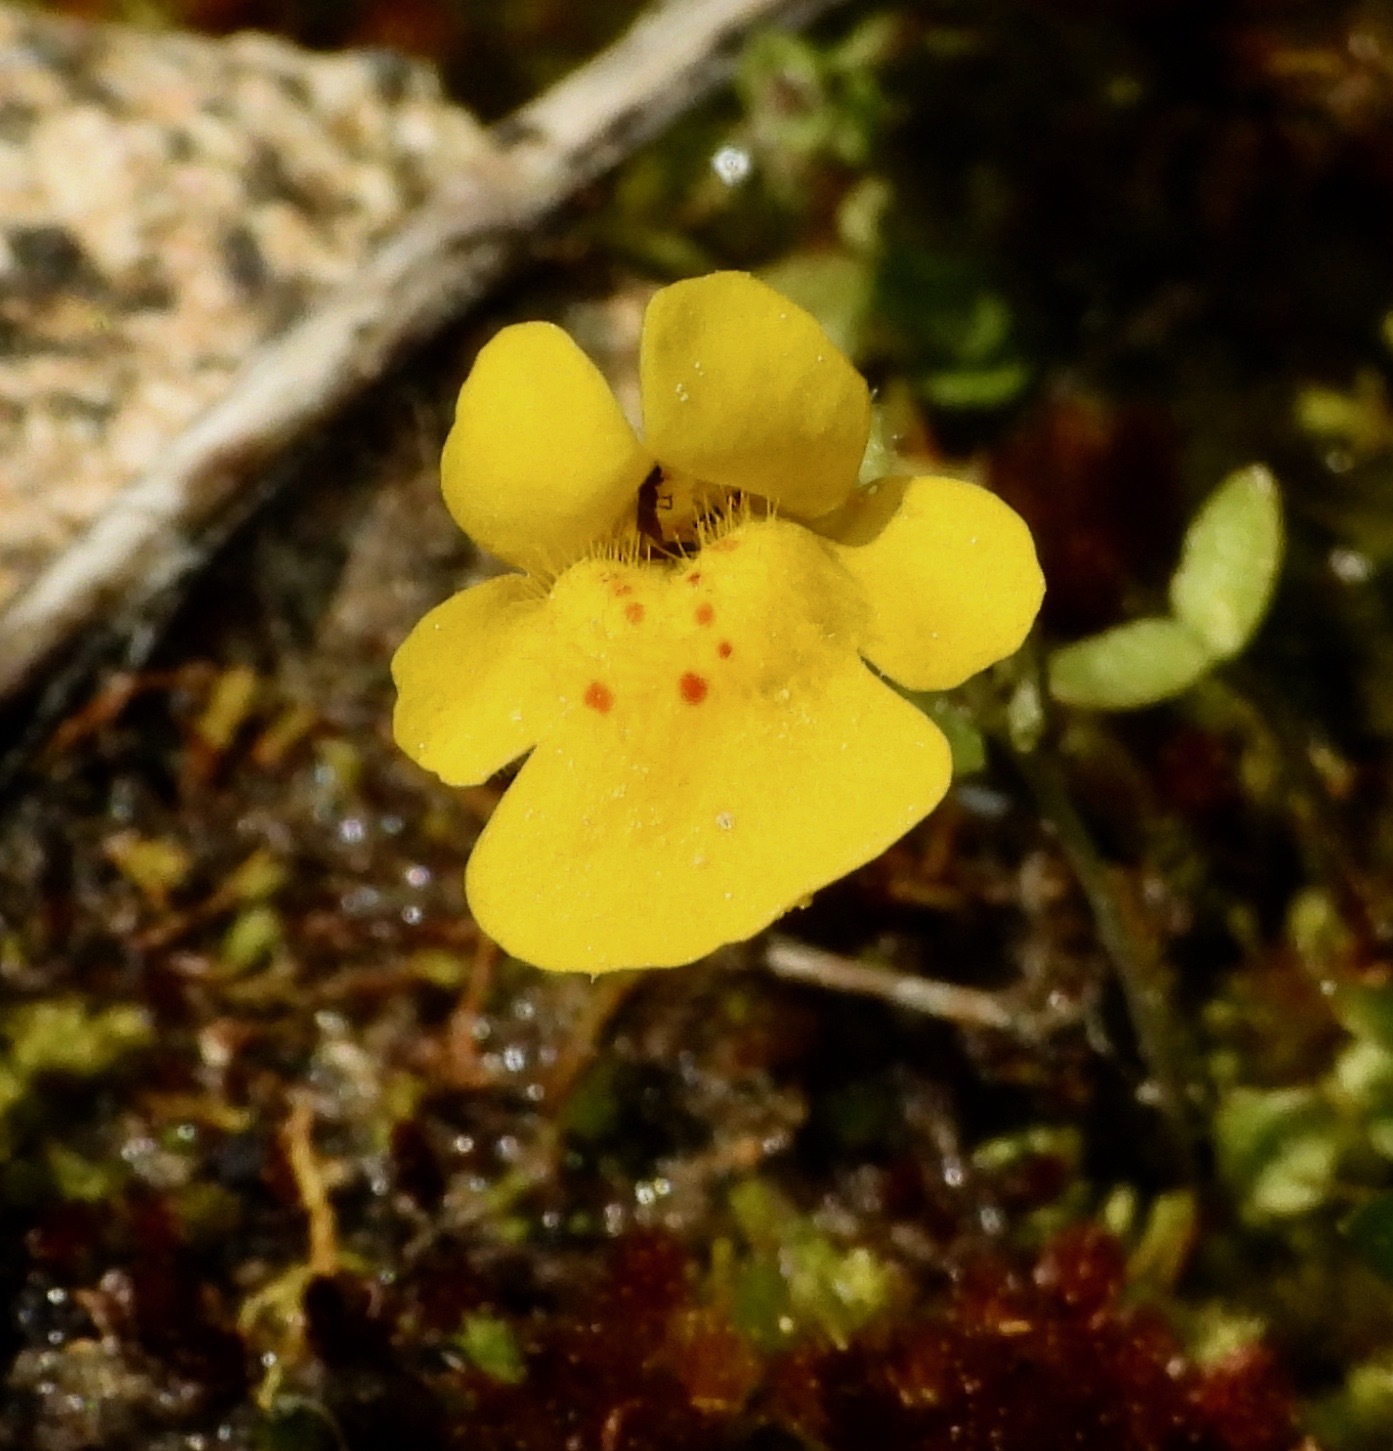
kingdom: Plantae
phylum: Tracheophyta
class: Magnoliopsida
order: Lamiales
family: Phrymaceae
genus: Erythranthe
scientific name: Erythranthe microphylla
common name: Bentham's monkeyflower
